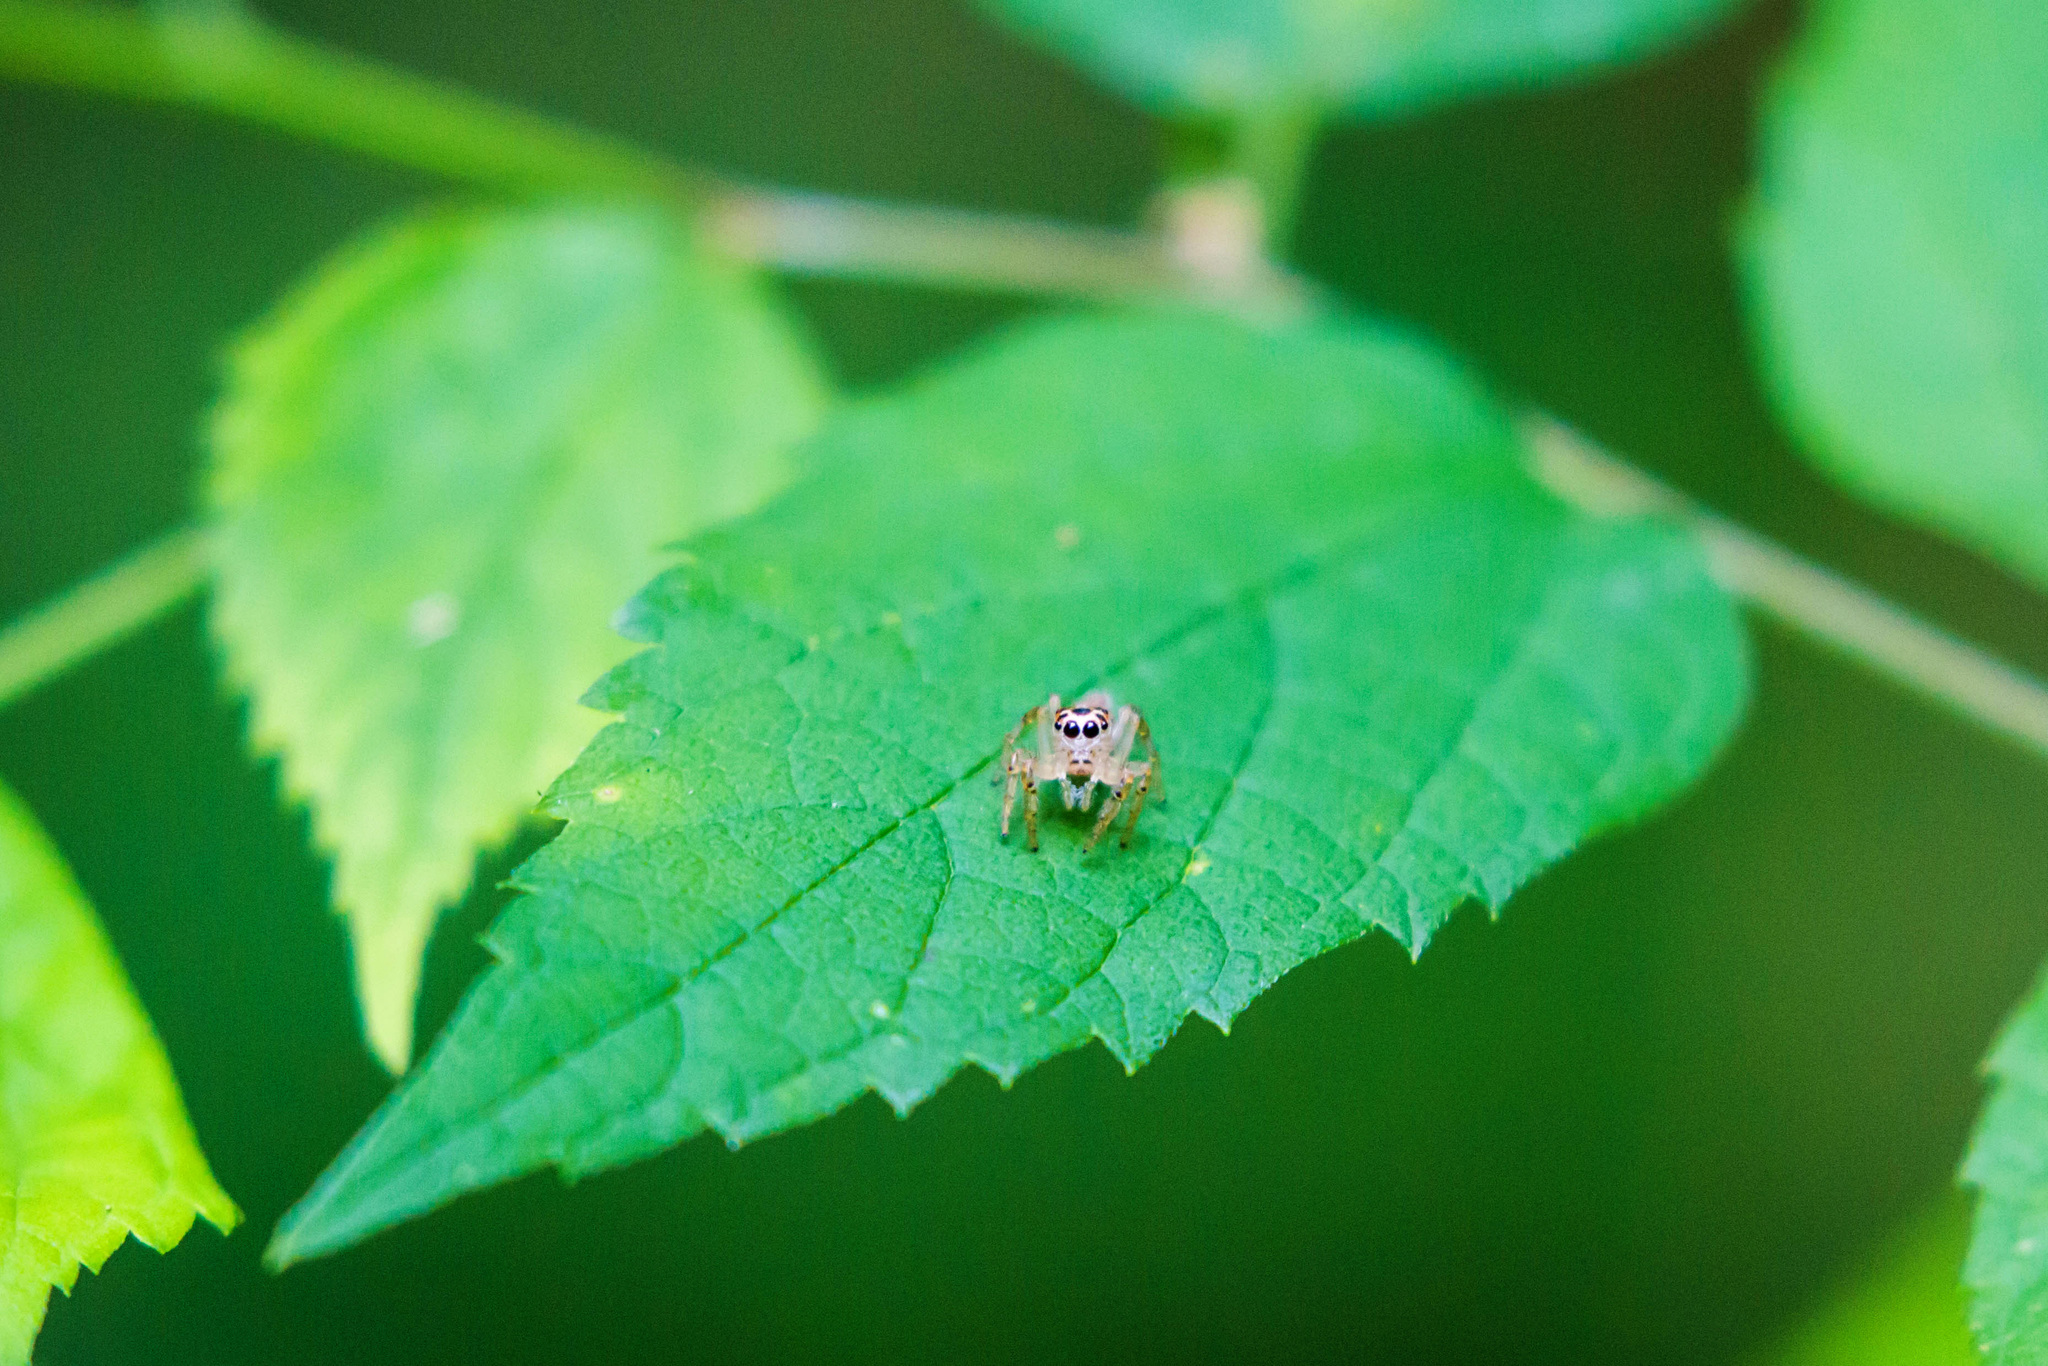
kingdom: Animalia
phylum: Arthropoda
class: Arachnida
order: Araneae
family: Salticidae
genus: Colonus
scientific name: Colonus sylvanus
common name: Jumping spiders
